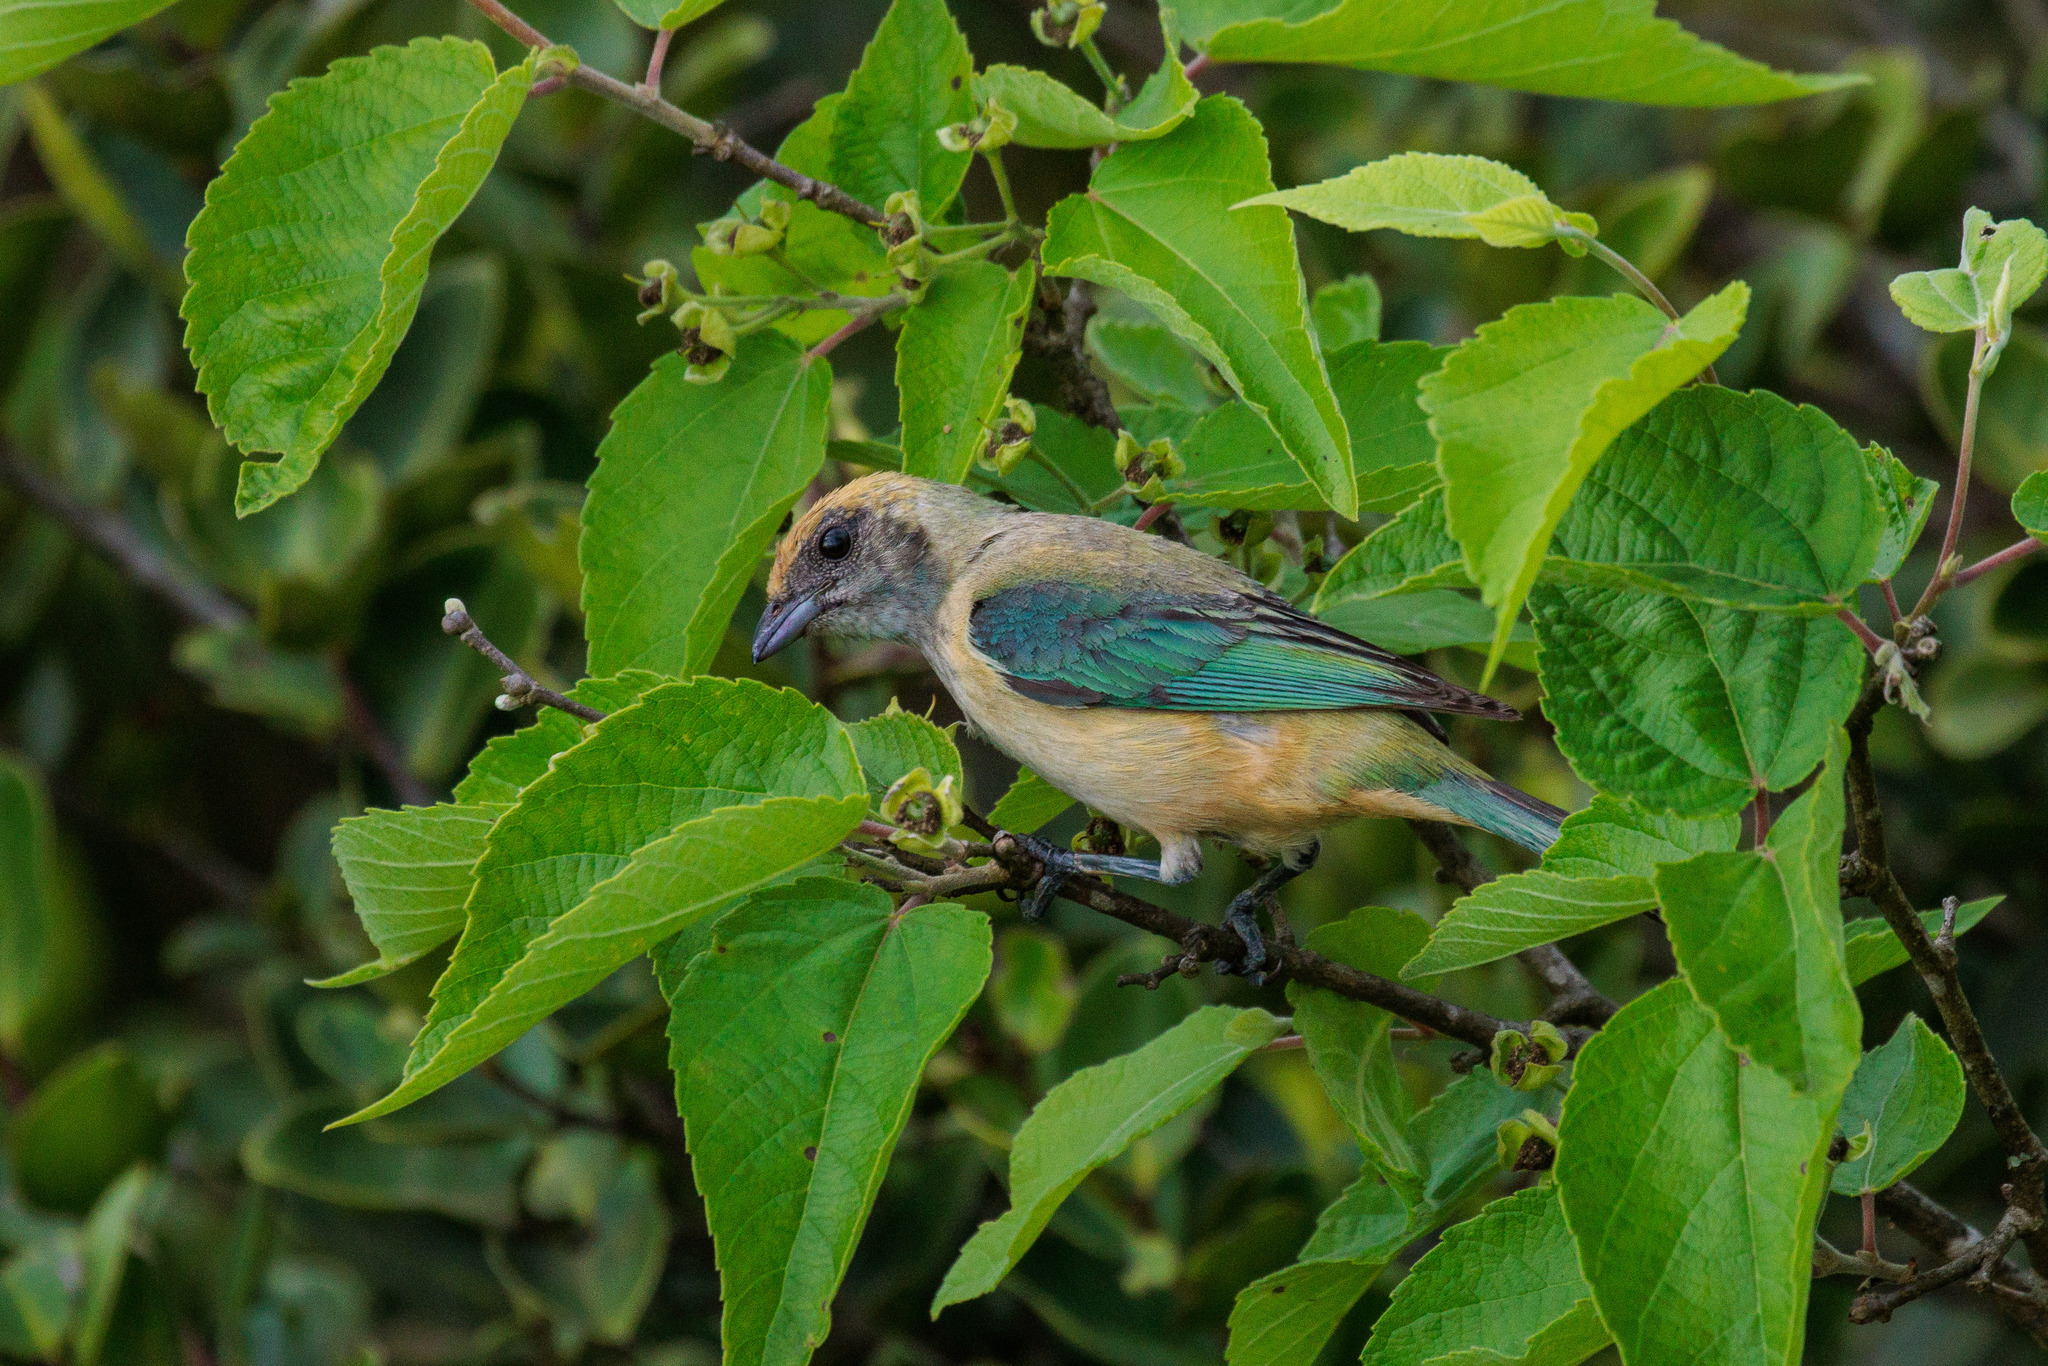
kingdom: Animalia
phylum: Chordata
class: Aves
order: Passeriformes
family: Thraupidae
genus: Stilpnia
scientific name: Stilpnia cayana
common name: Burnished-buff tanager
